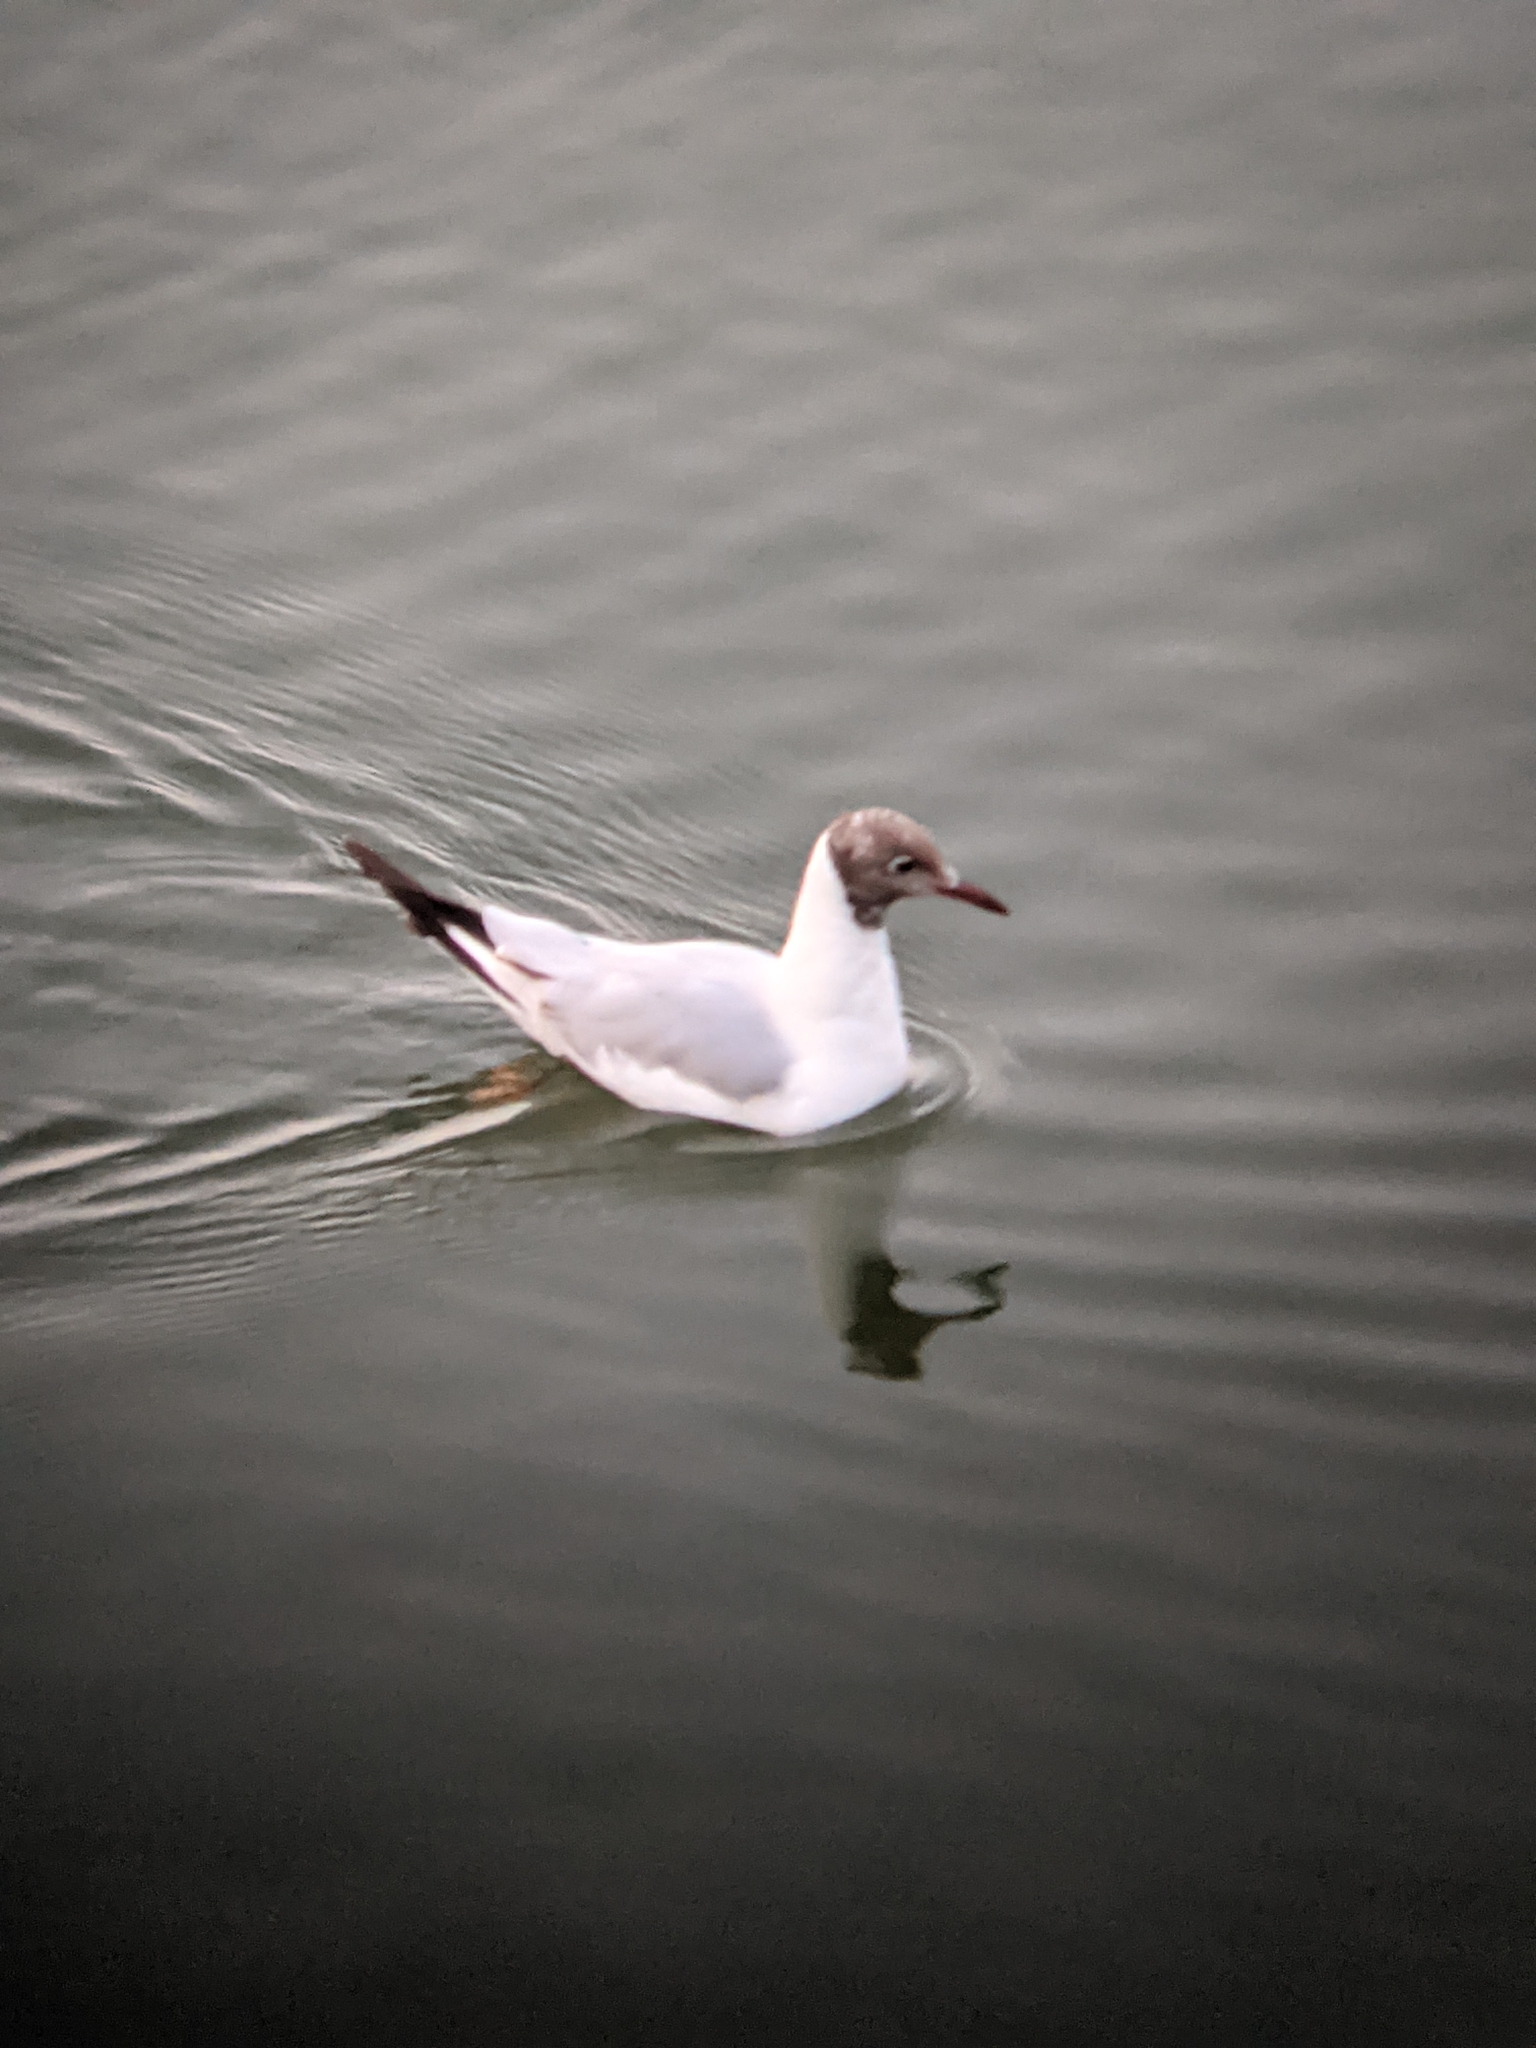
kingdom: Animalia
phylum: Chordata
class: Aves
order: Charadriiformes
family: Laridae
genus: Chroicocephalus
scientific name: Chroicocephalus ridibundus
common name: Black-headed gull
